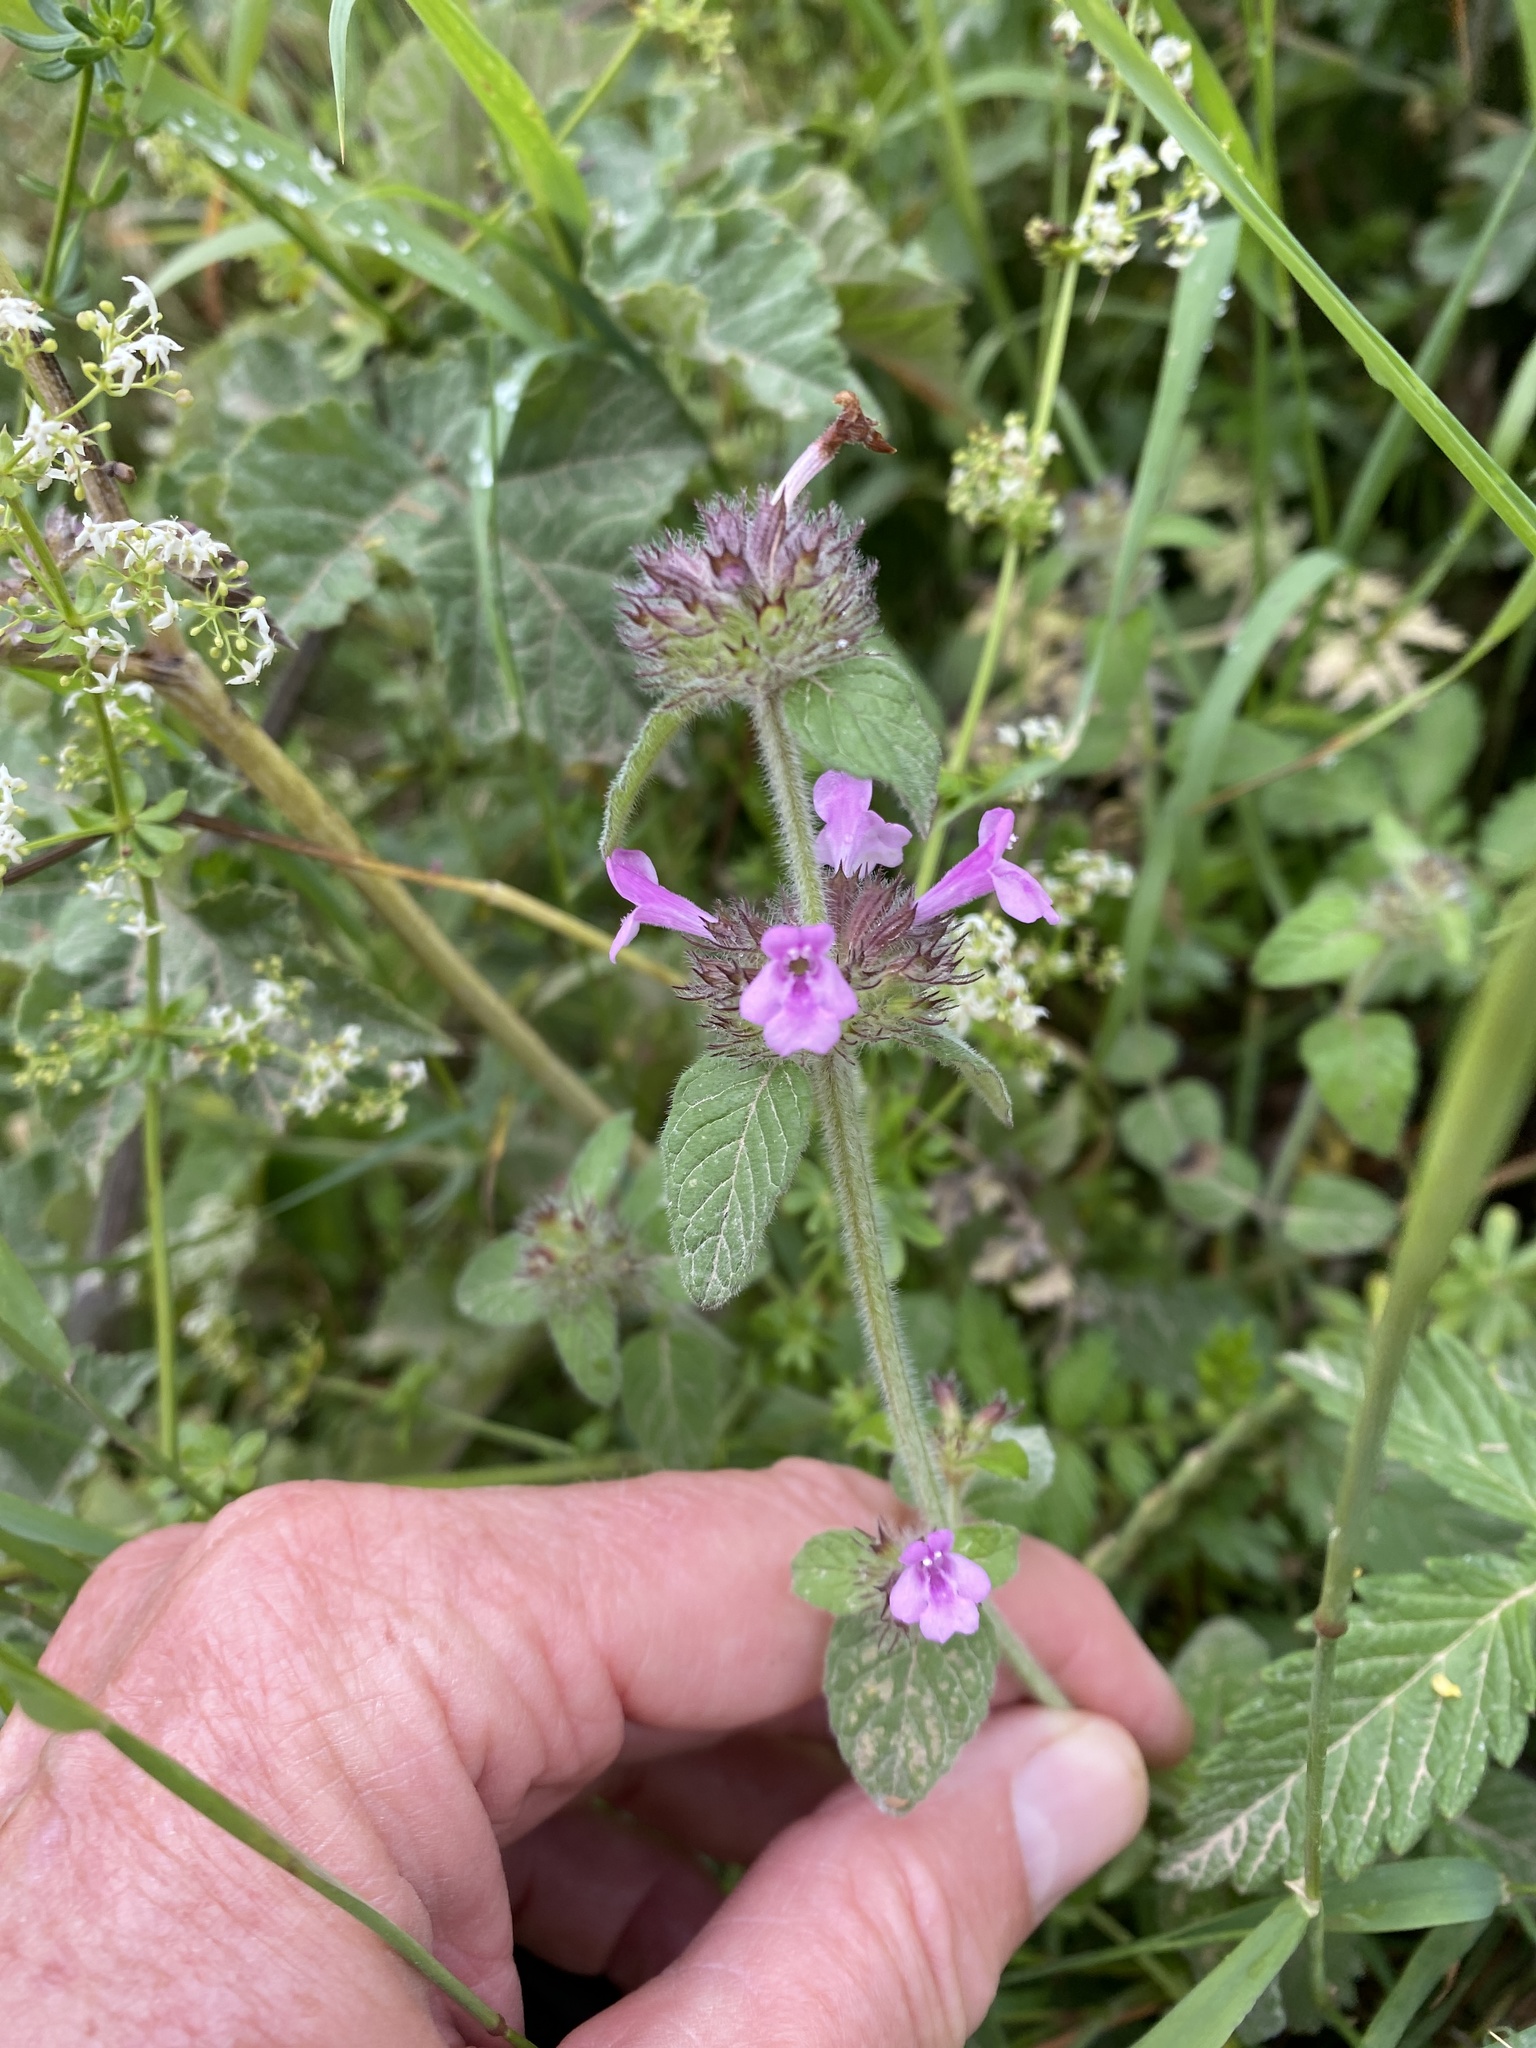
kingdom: Plantae
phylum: Tracheophyta
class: Magnoliopsida
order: Lamiales
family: Lamiaceae
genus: Clinopodium
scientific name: Clinopodium vulgare
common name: Wild basil
